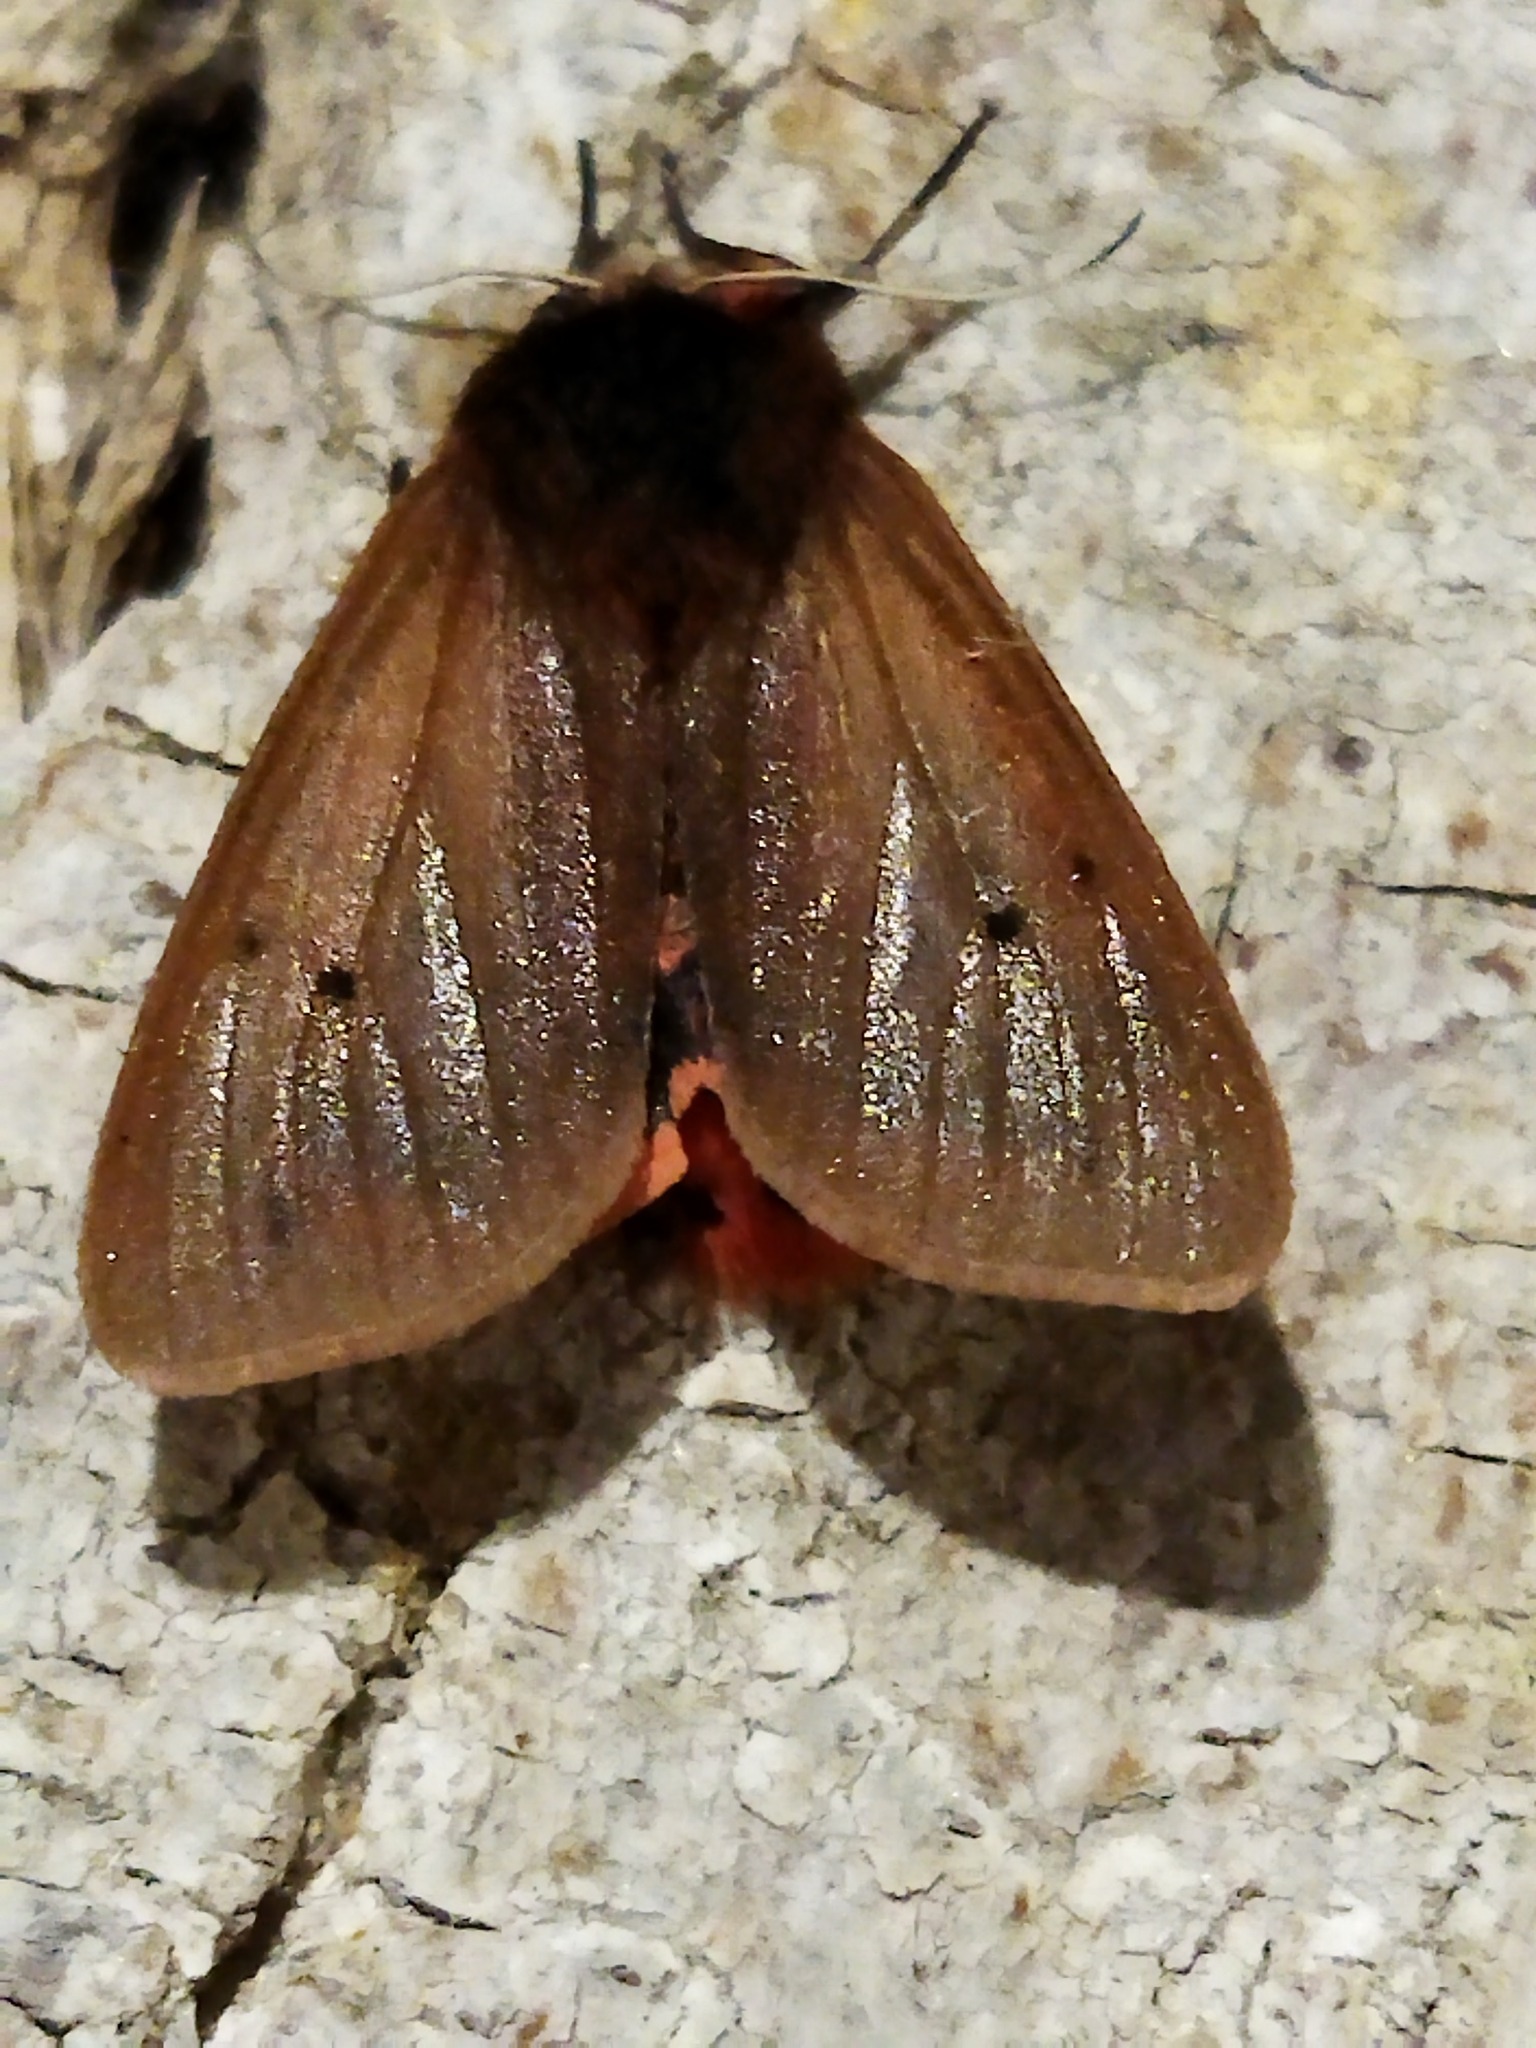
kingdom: Animalia
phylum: Arthropoda
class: Insecta
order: Lepidoptera
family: Erebidae
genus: Phragmatobia
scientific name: Phragmatobia fuliginosa
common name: Ruby tiger
